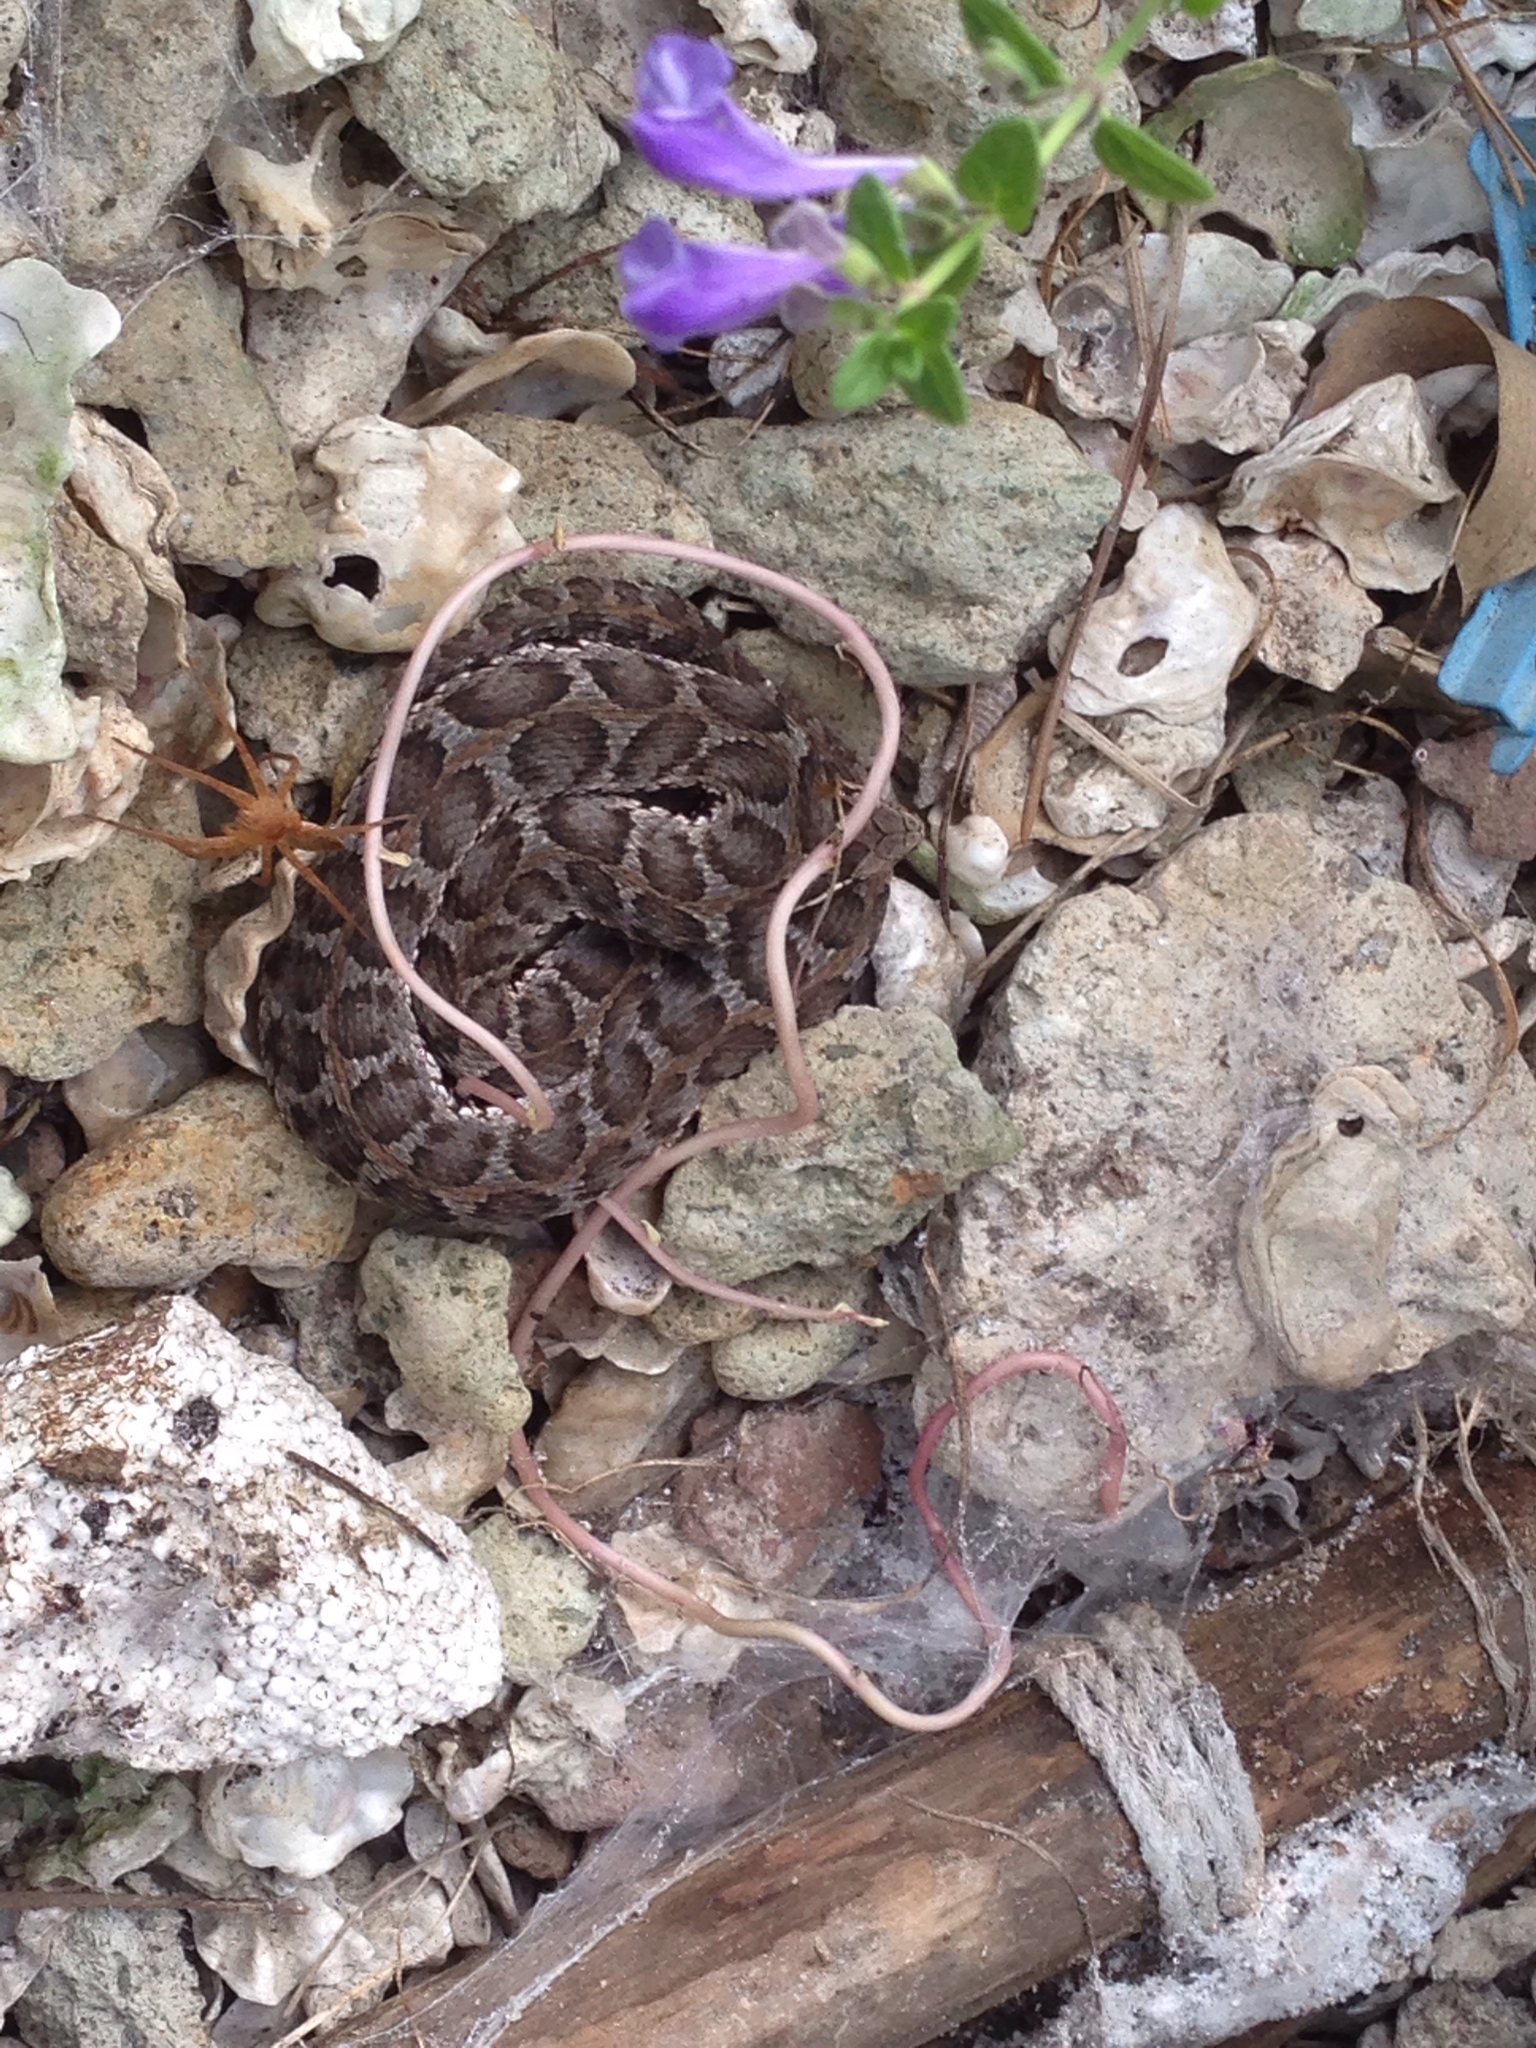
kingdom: Animalia
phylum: Chordata
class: Squamata
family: Viperidae
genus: Gloydius
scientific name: Gloydius brevicauda
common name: Short-tailed mamushi
